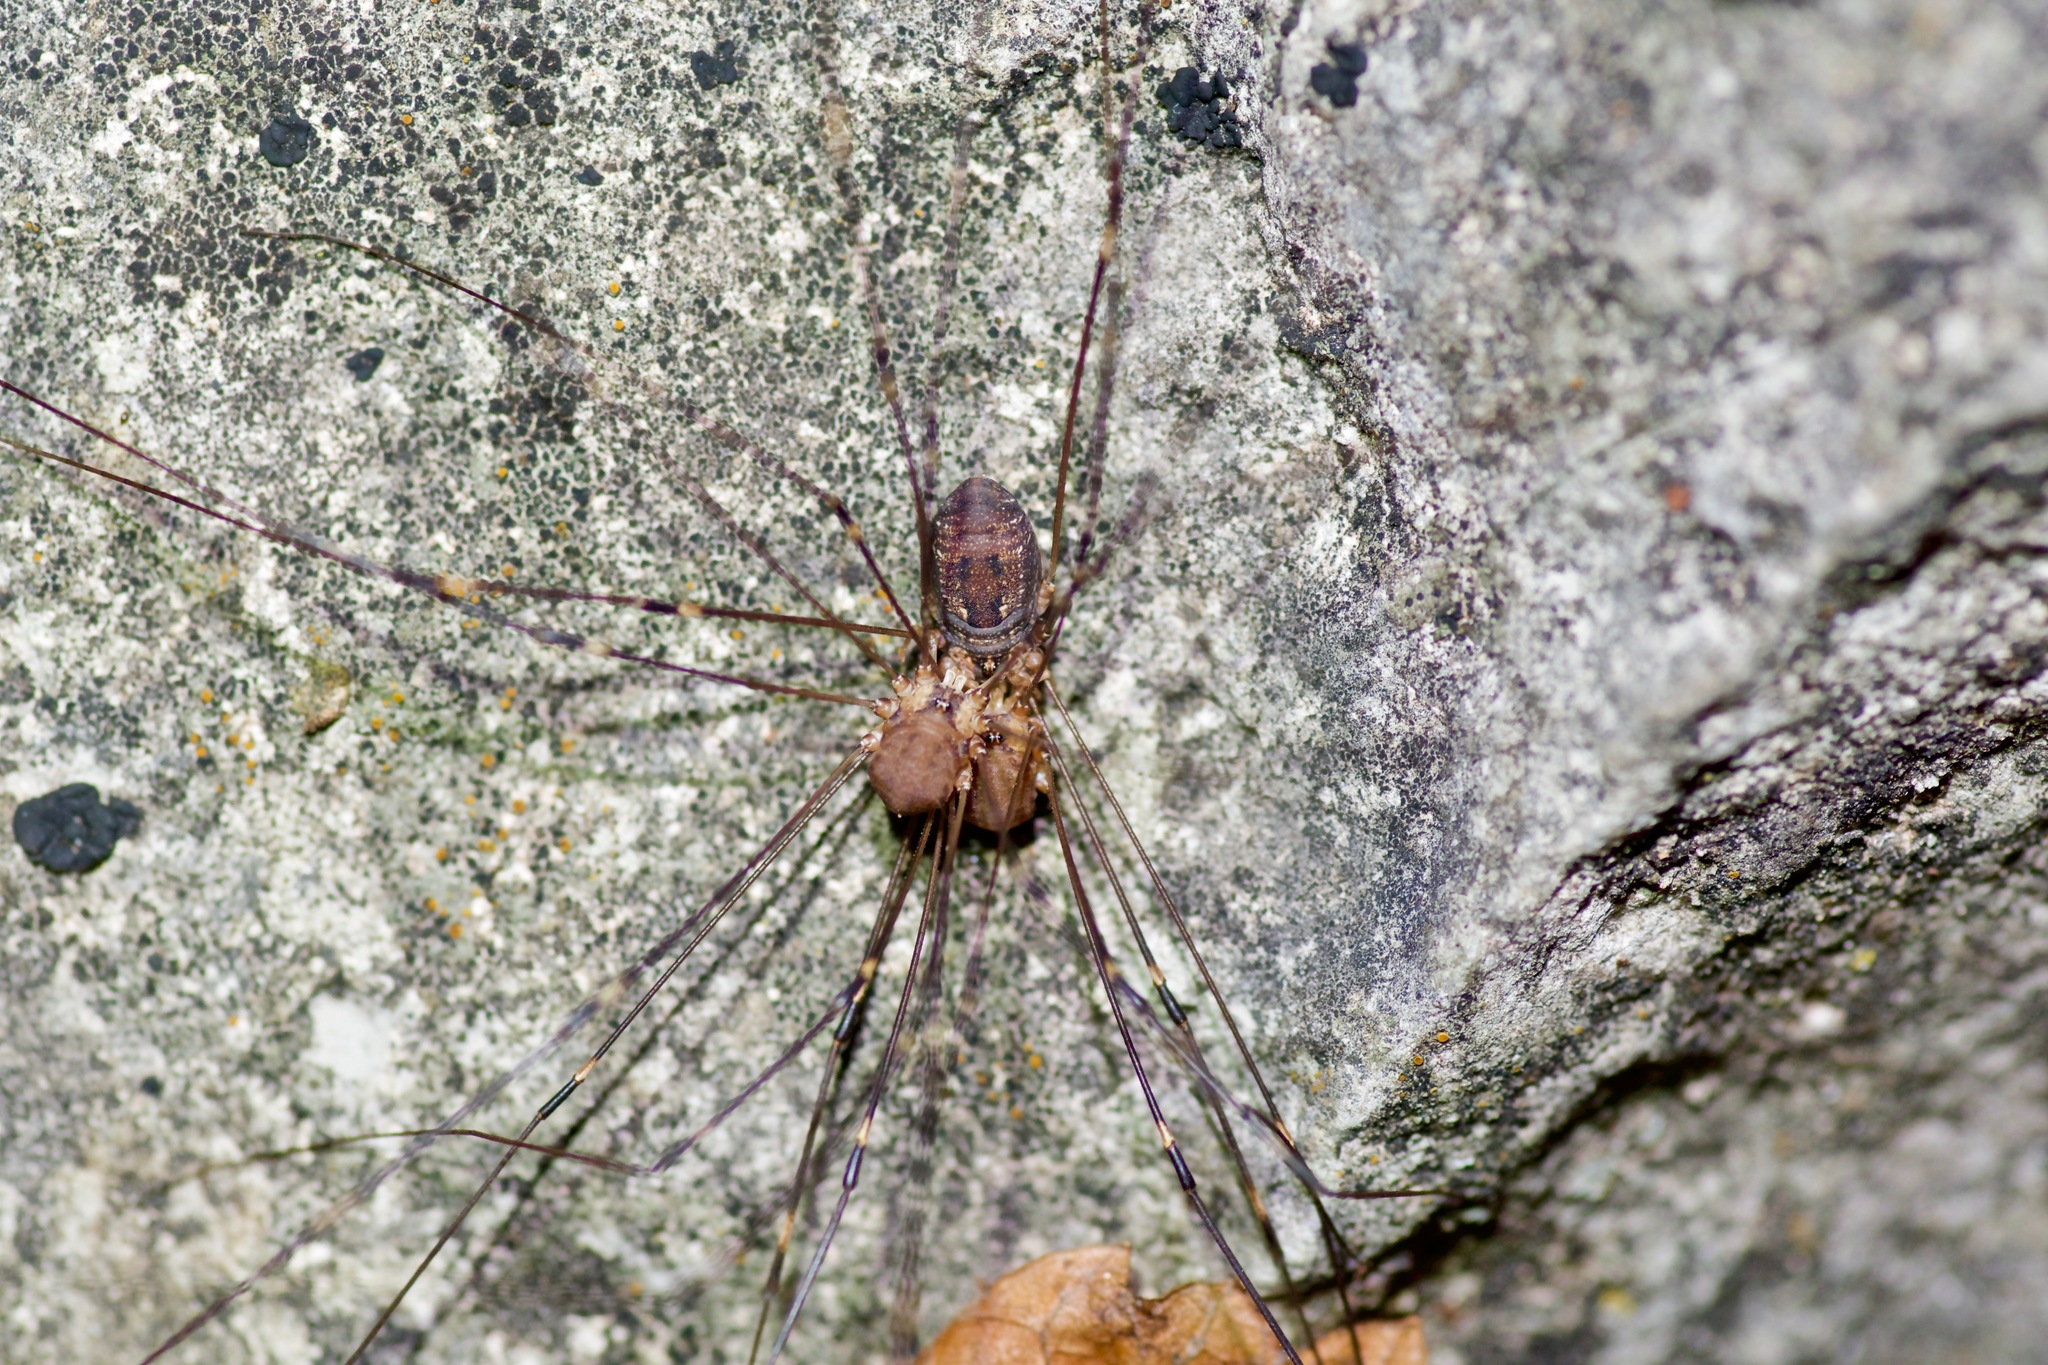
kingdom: Animalia
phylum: Arthropoda
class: Arachnida
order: Opiliones
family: Sclerosomatidae
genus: Leiobunum
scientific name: Leiobunum townsendi
